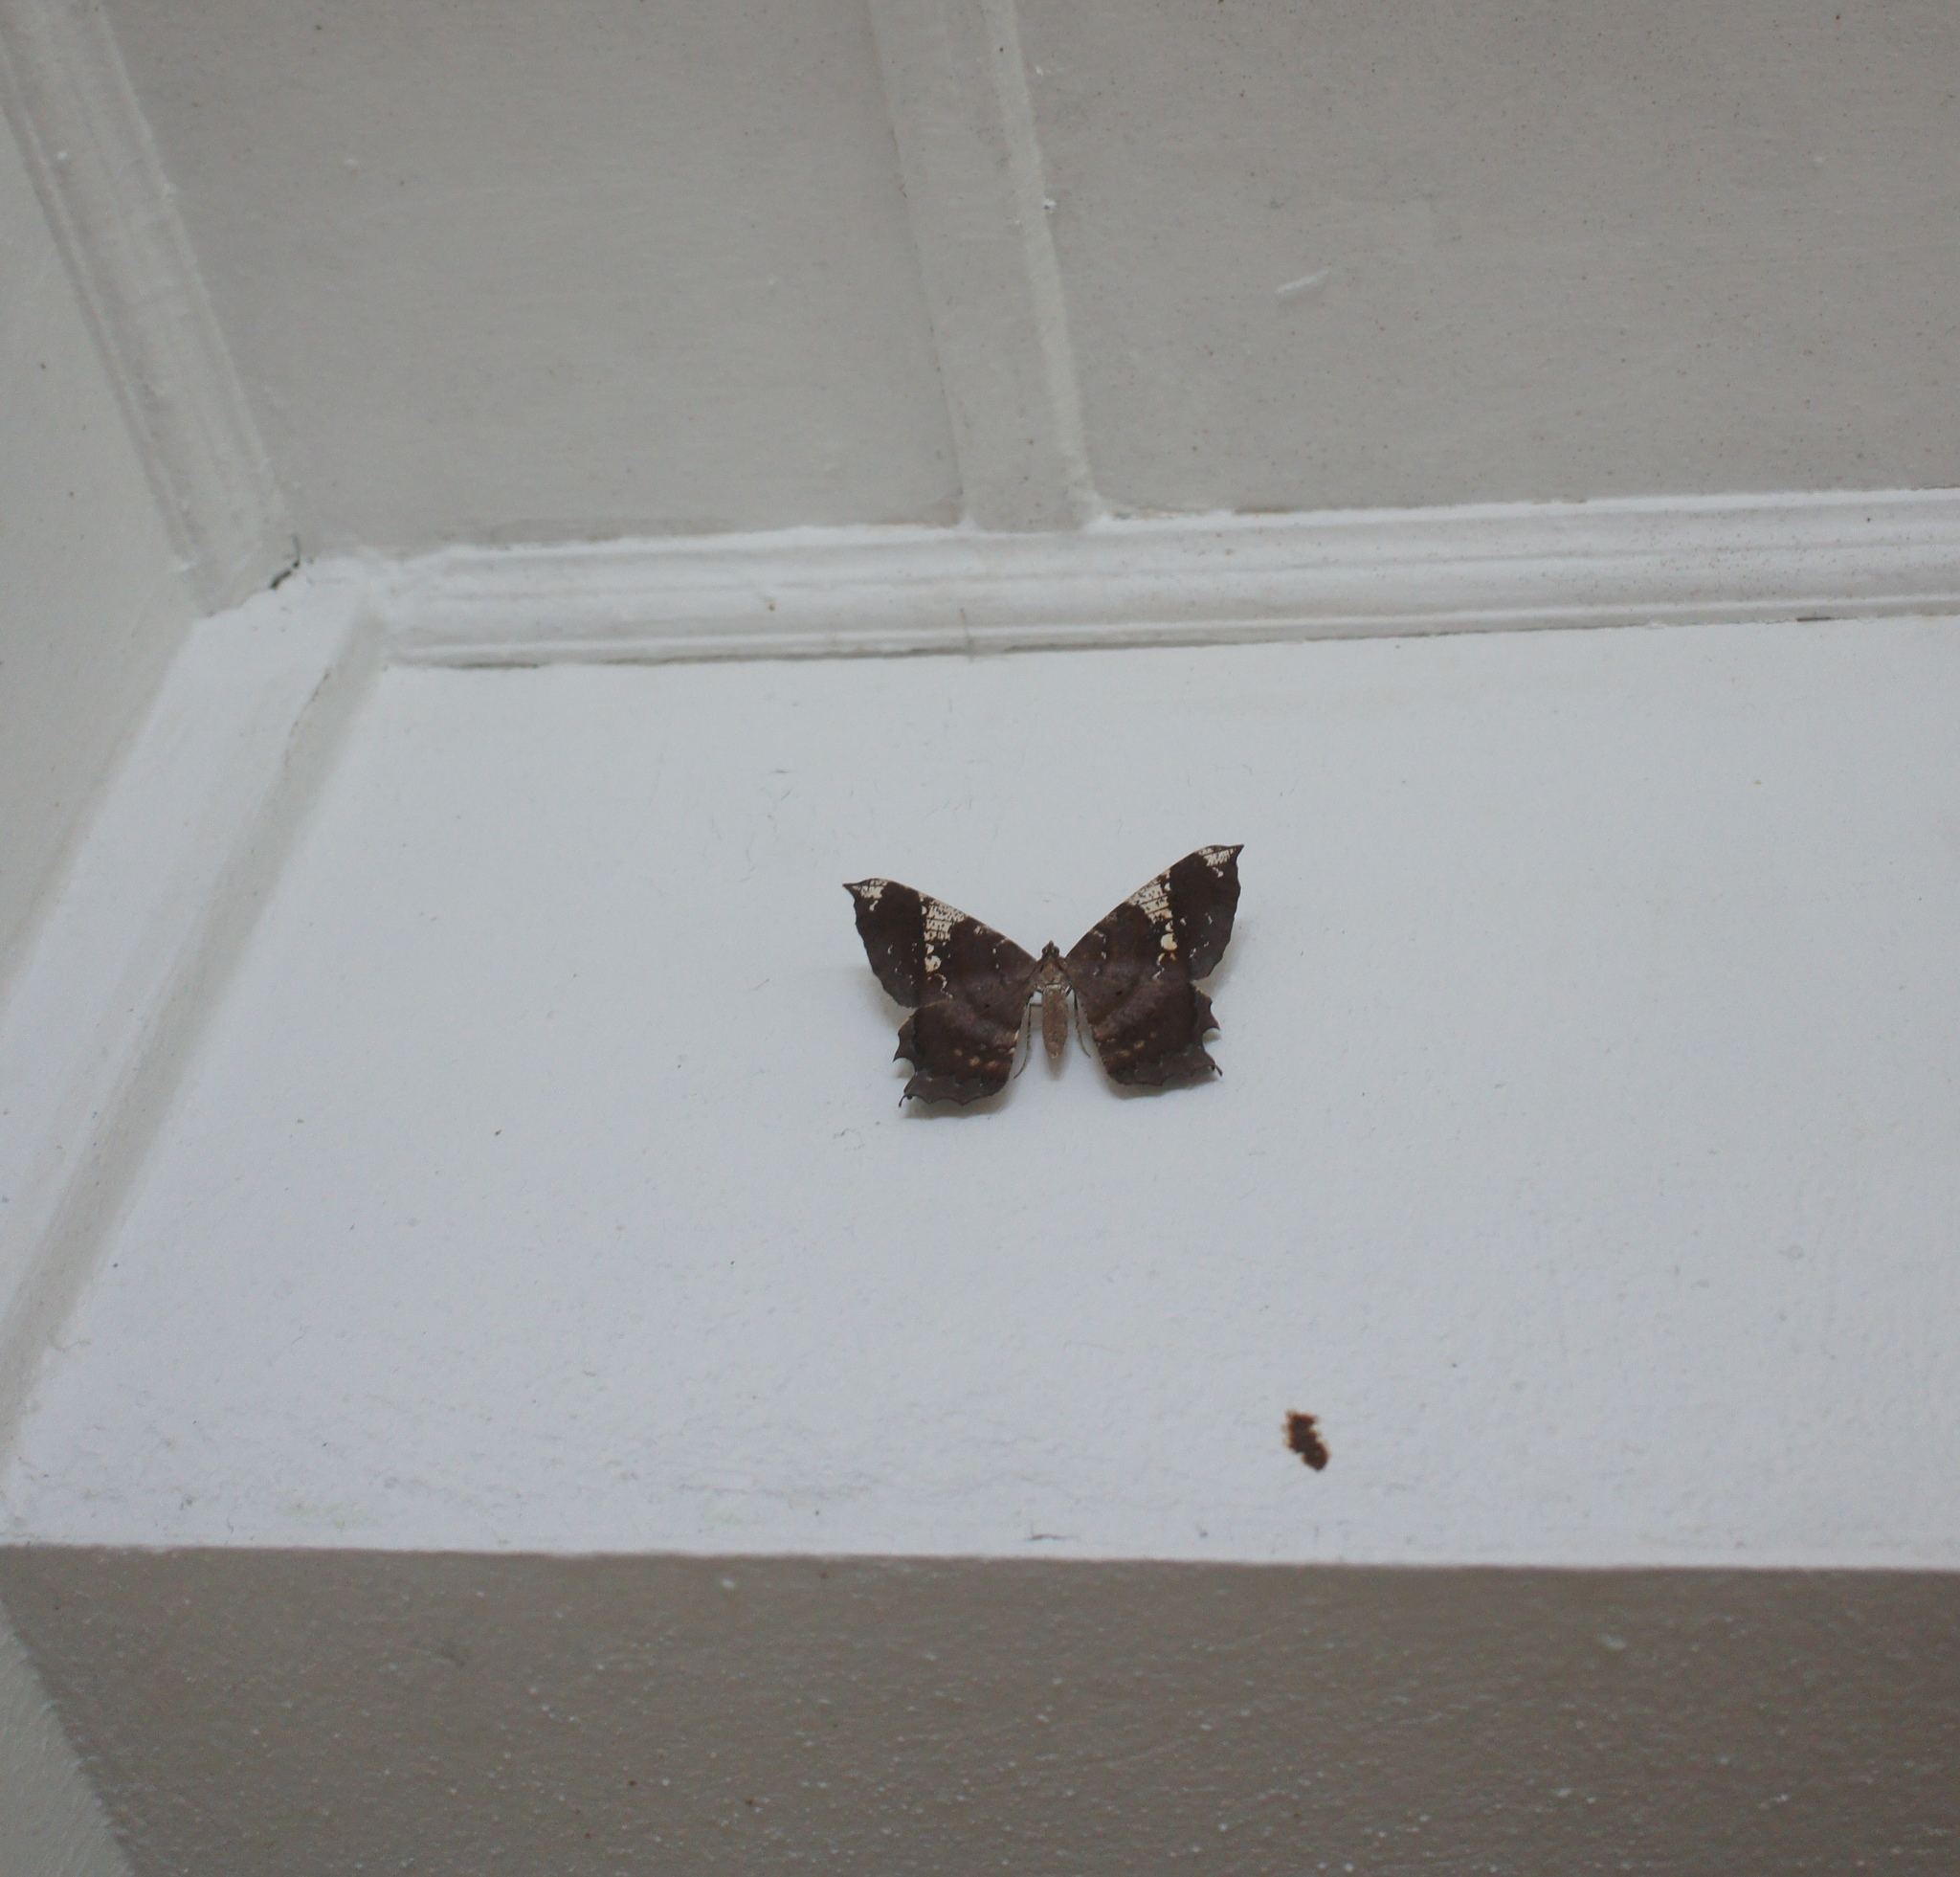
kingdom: Animalia
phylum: Arthropoda
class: Insecta
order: Lepidoptera
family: Geometridae
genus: Amblychia
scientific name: Amblychia infoveata
